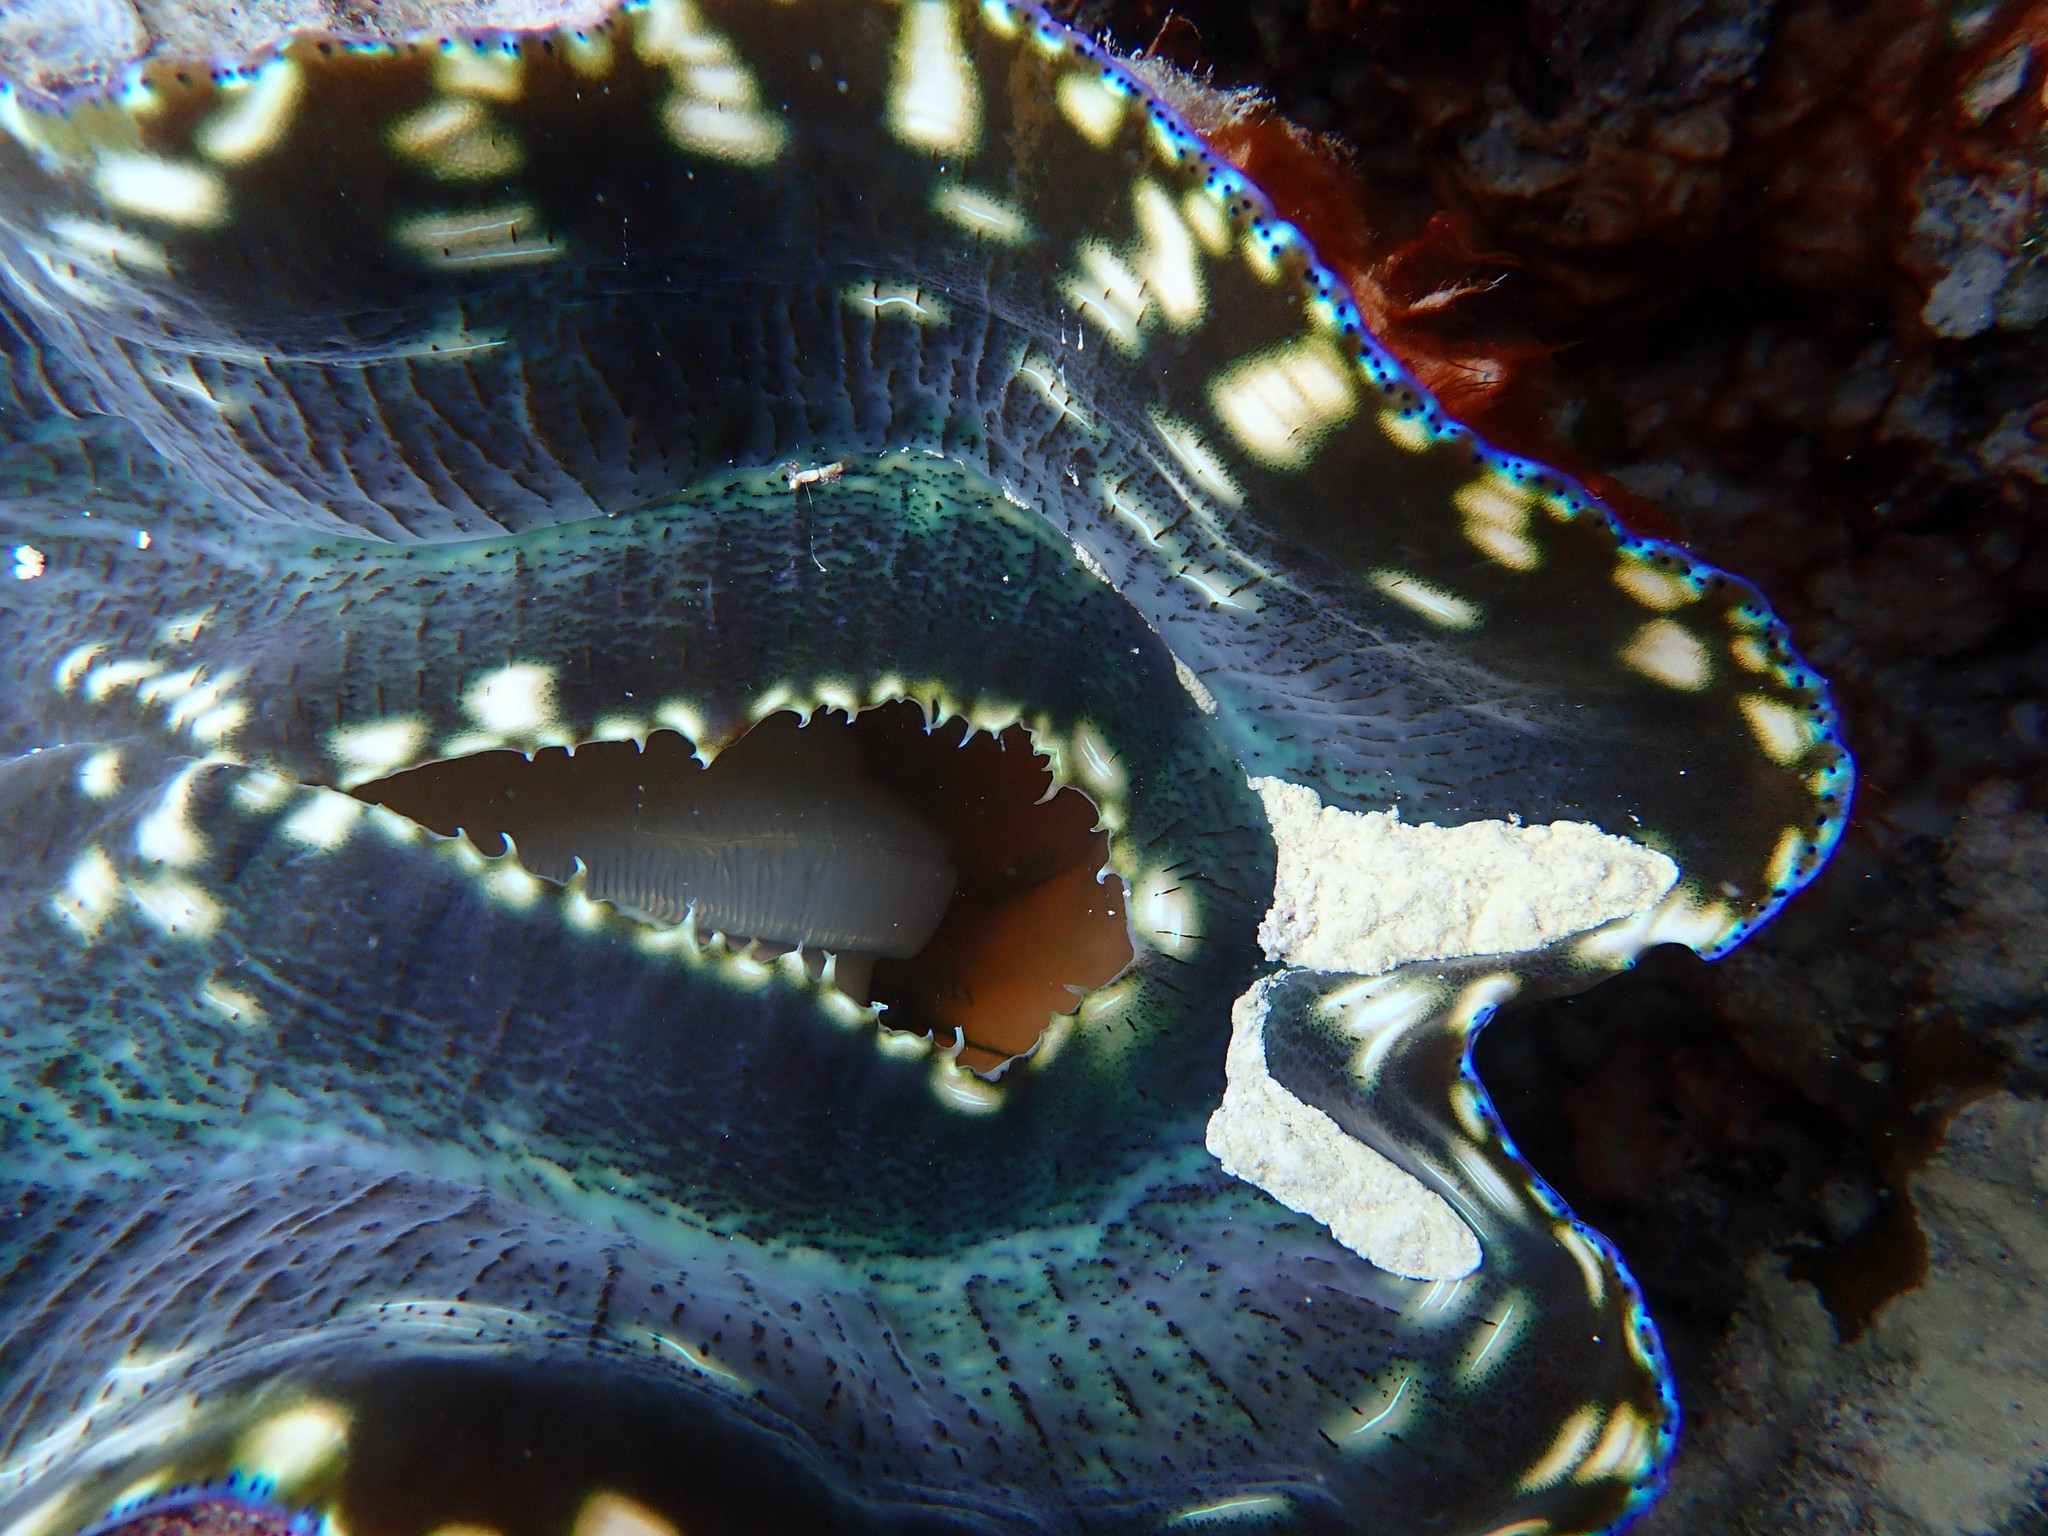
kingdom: Animalia
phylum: Mollusca
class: Bivalvia
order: Cardiida
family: Cardiidae
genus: Tridacna
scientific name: Tridacna derasa
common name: Southern giant clam
